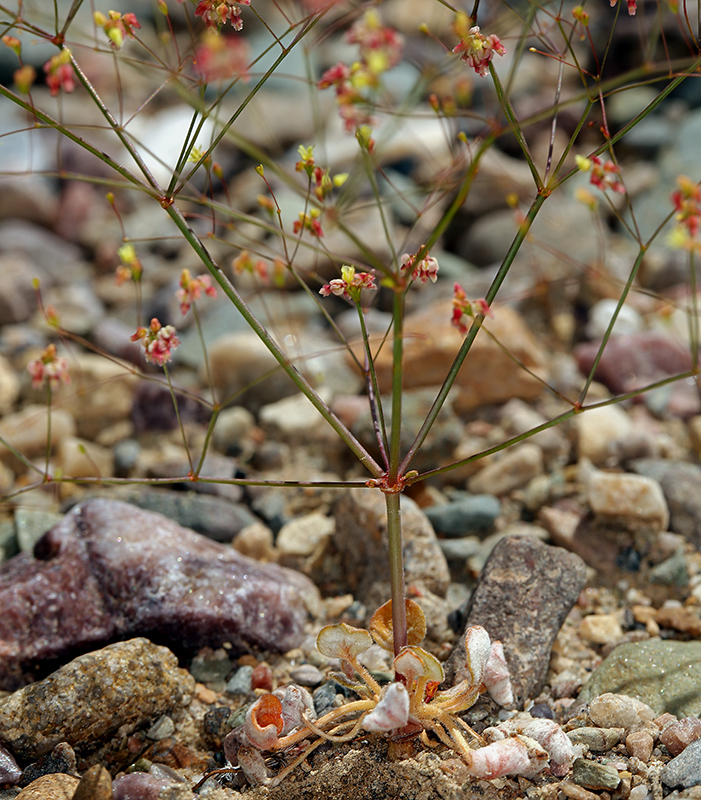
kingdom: Plantae
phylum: Tracheophyta
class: Magnoliopsida
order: Caryophyllales
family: Polygonaceae
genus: Eriogonum
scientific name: Eriogonum thomasii
